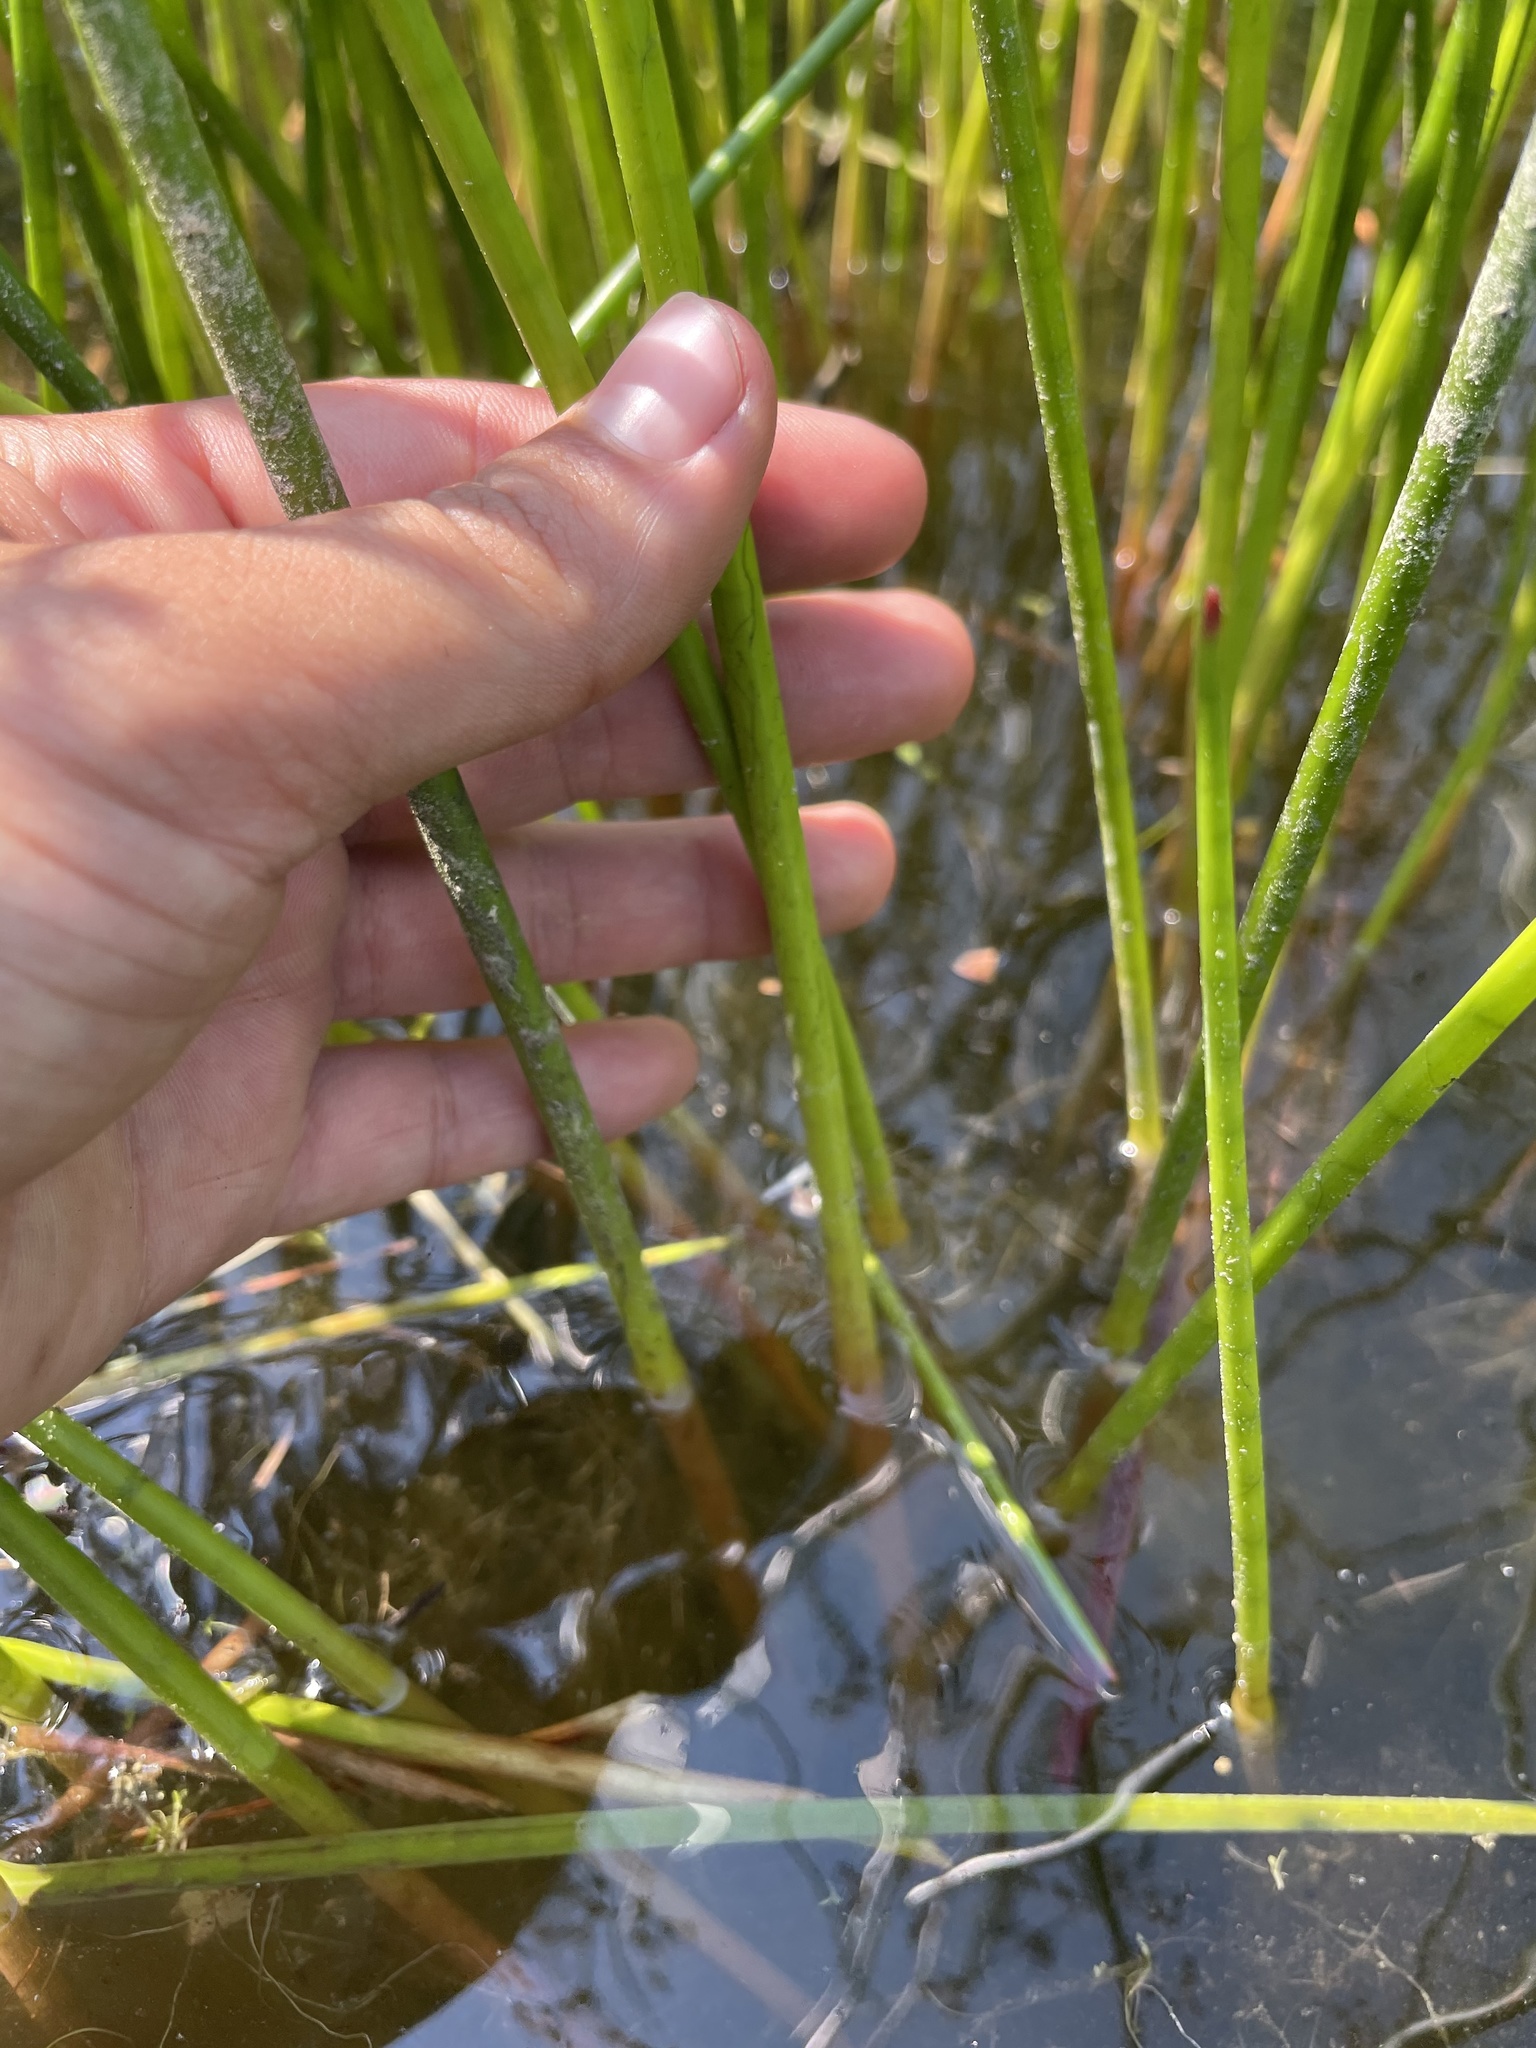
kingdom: Plantae
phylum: Tracheophyta
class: Liliopsida
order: Poales
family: Juncaceae
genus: Juncus
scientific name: Juncus canadensis
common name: Canada rush
